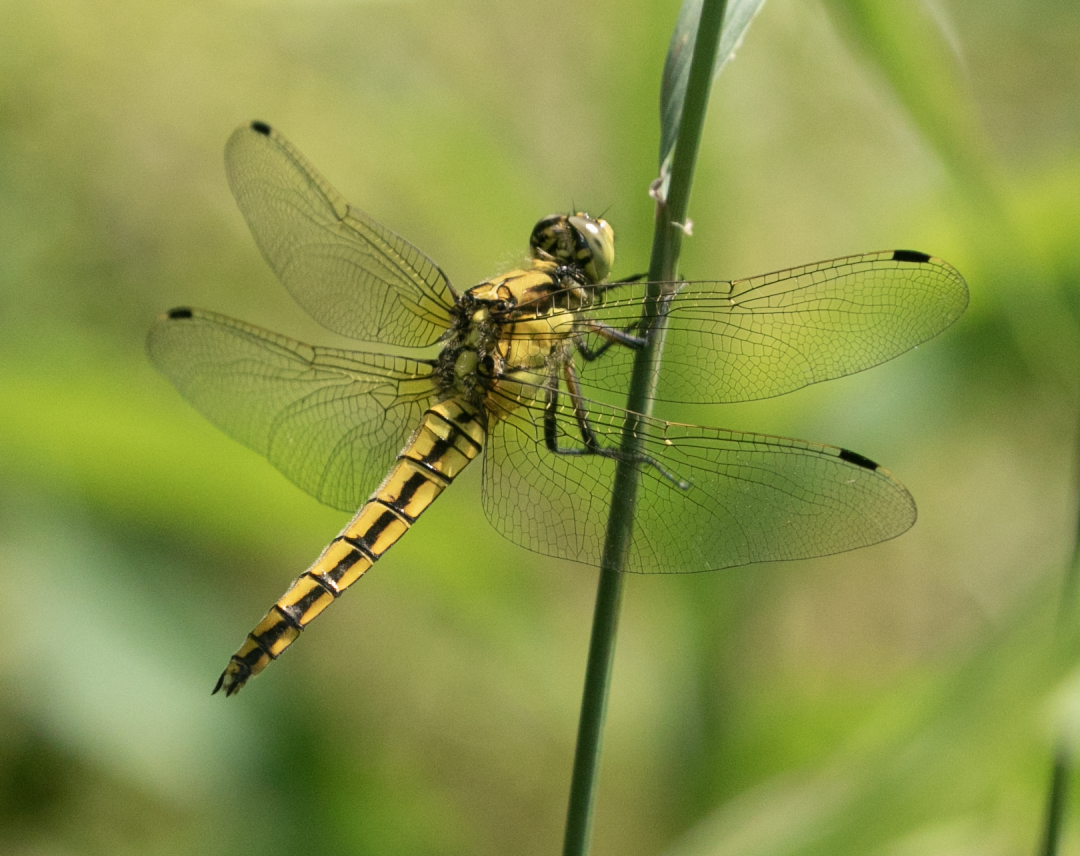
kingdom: Animalia
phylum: Arthropoda
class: Insecta
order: Odonata
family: Libellulidae
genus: Orthetrum
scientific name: Orthetrum cancellatum
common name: Black-tailed skimmer
